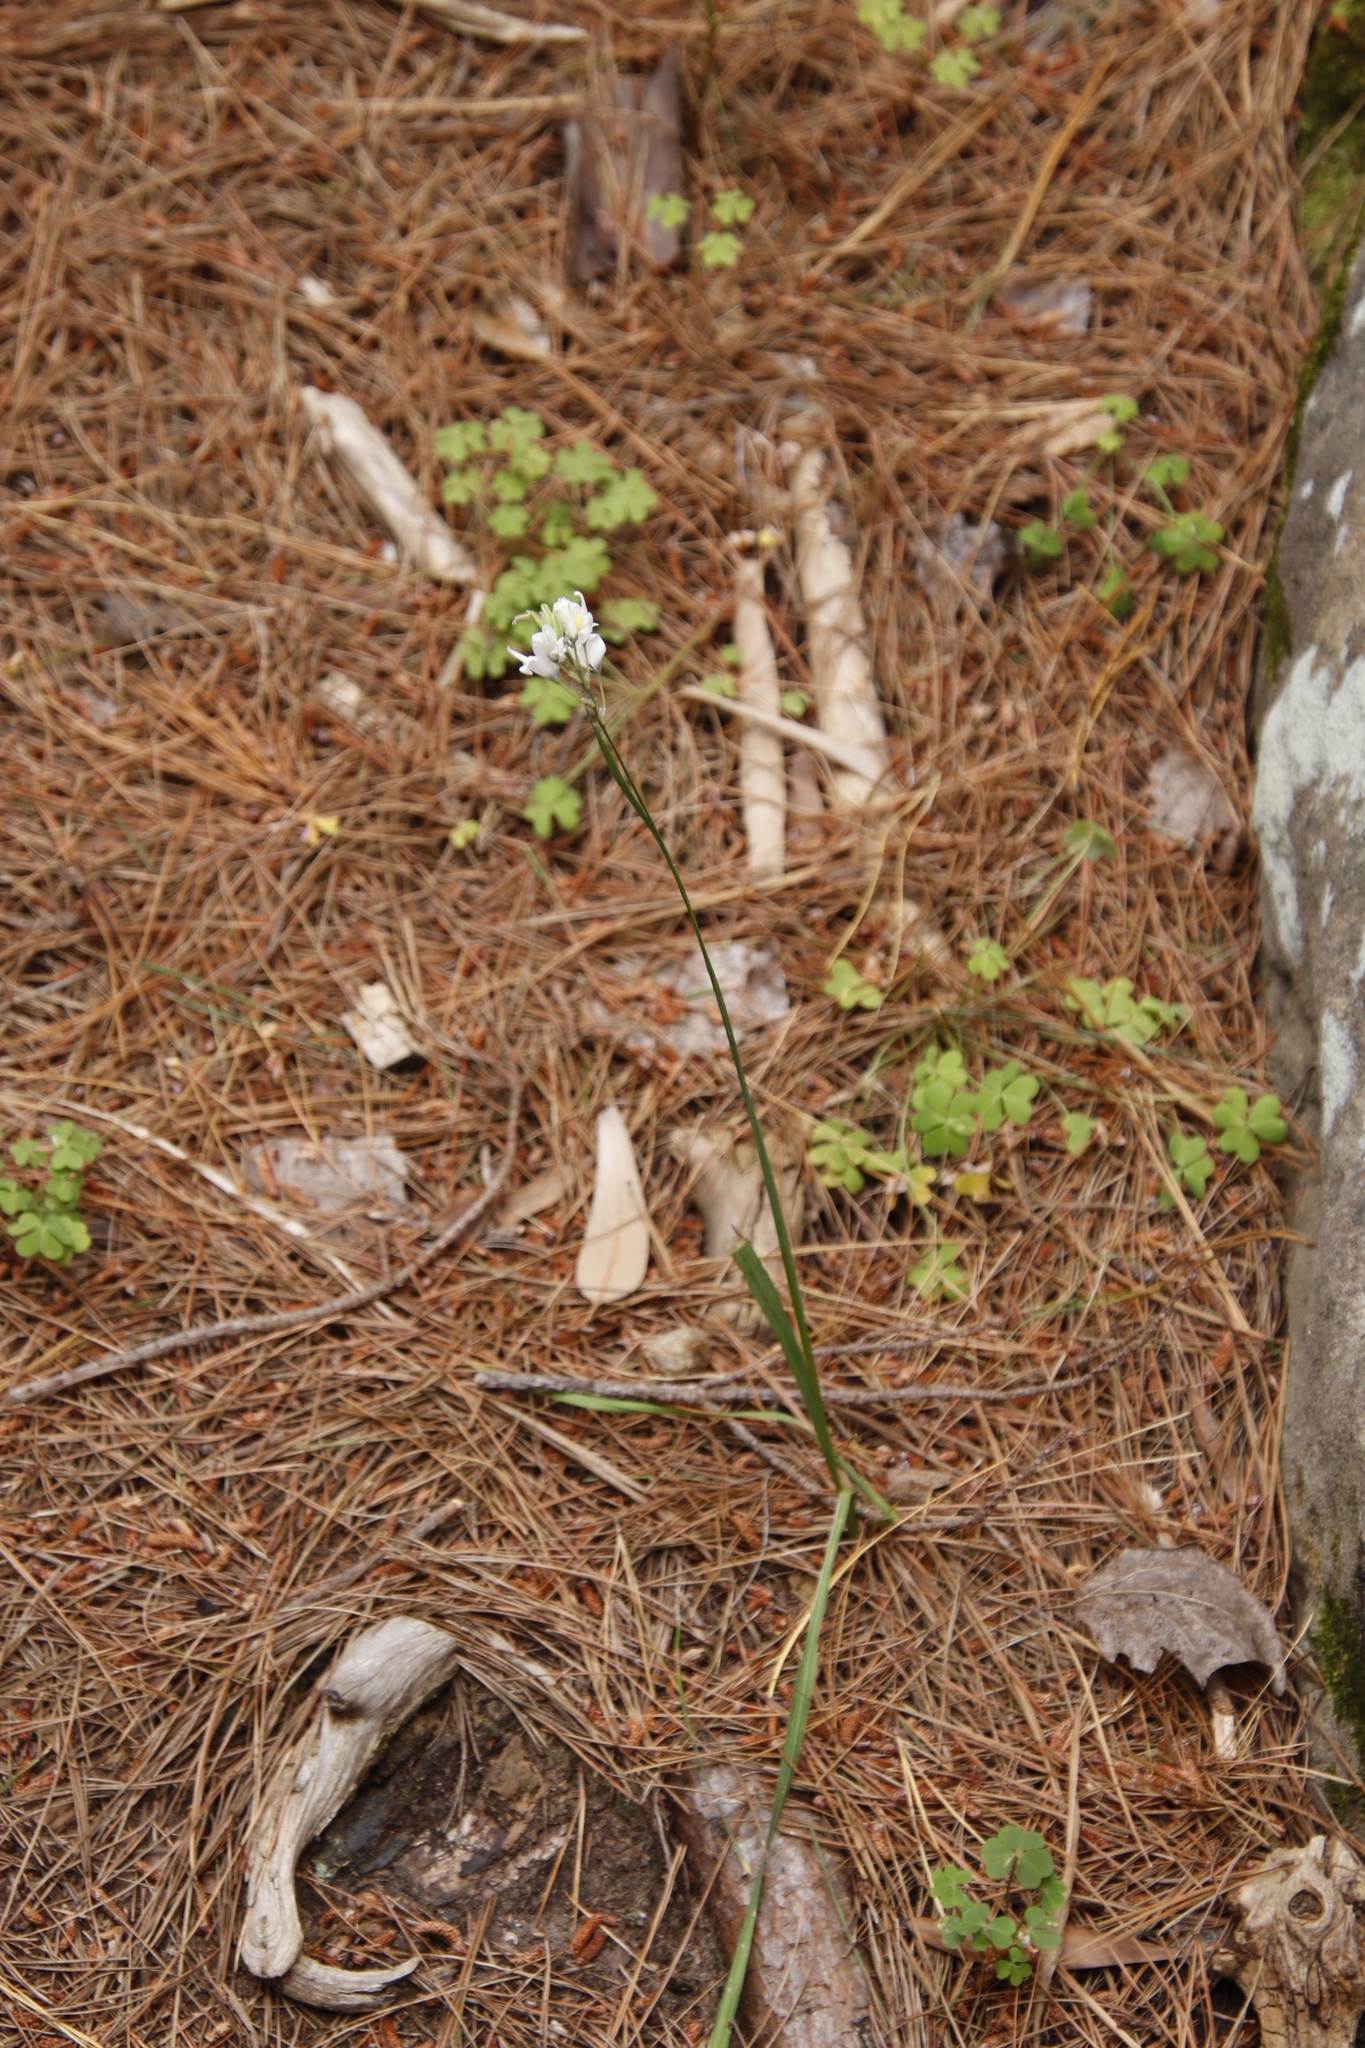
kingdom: Plantae
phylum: Tracheophyta
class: Liliopsida
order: Asparagales
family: Iridaceae
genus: Ixia
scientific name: Ixia polystachya
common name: White-and-yellow-flower cornlily
